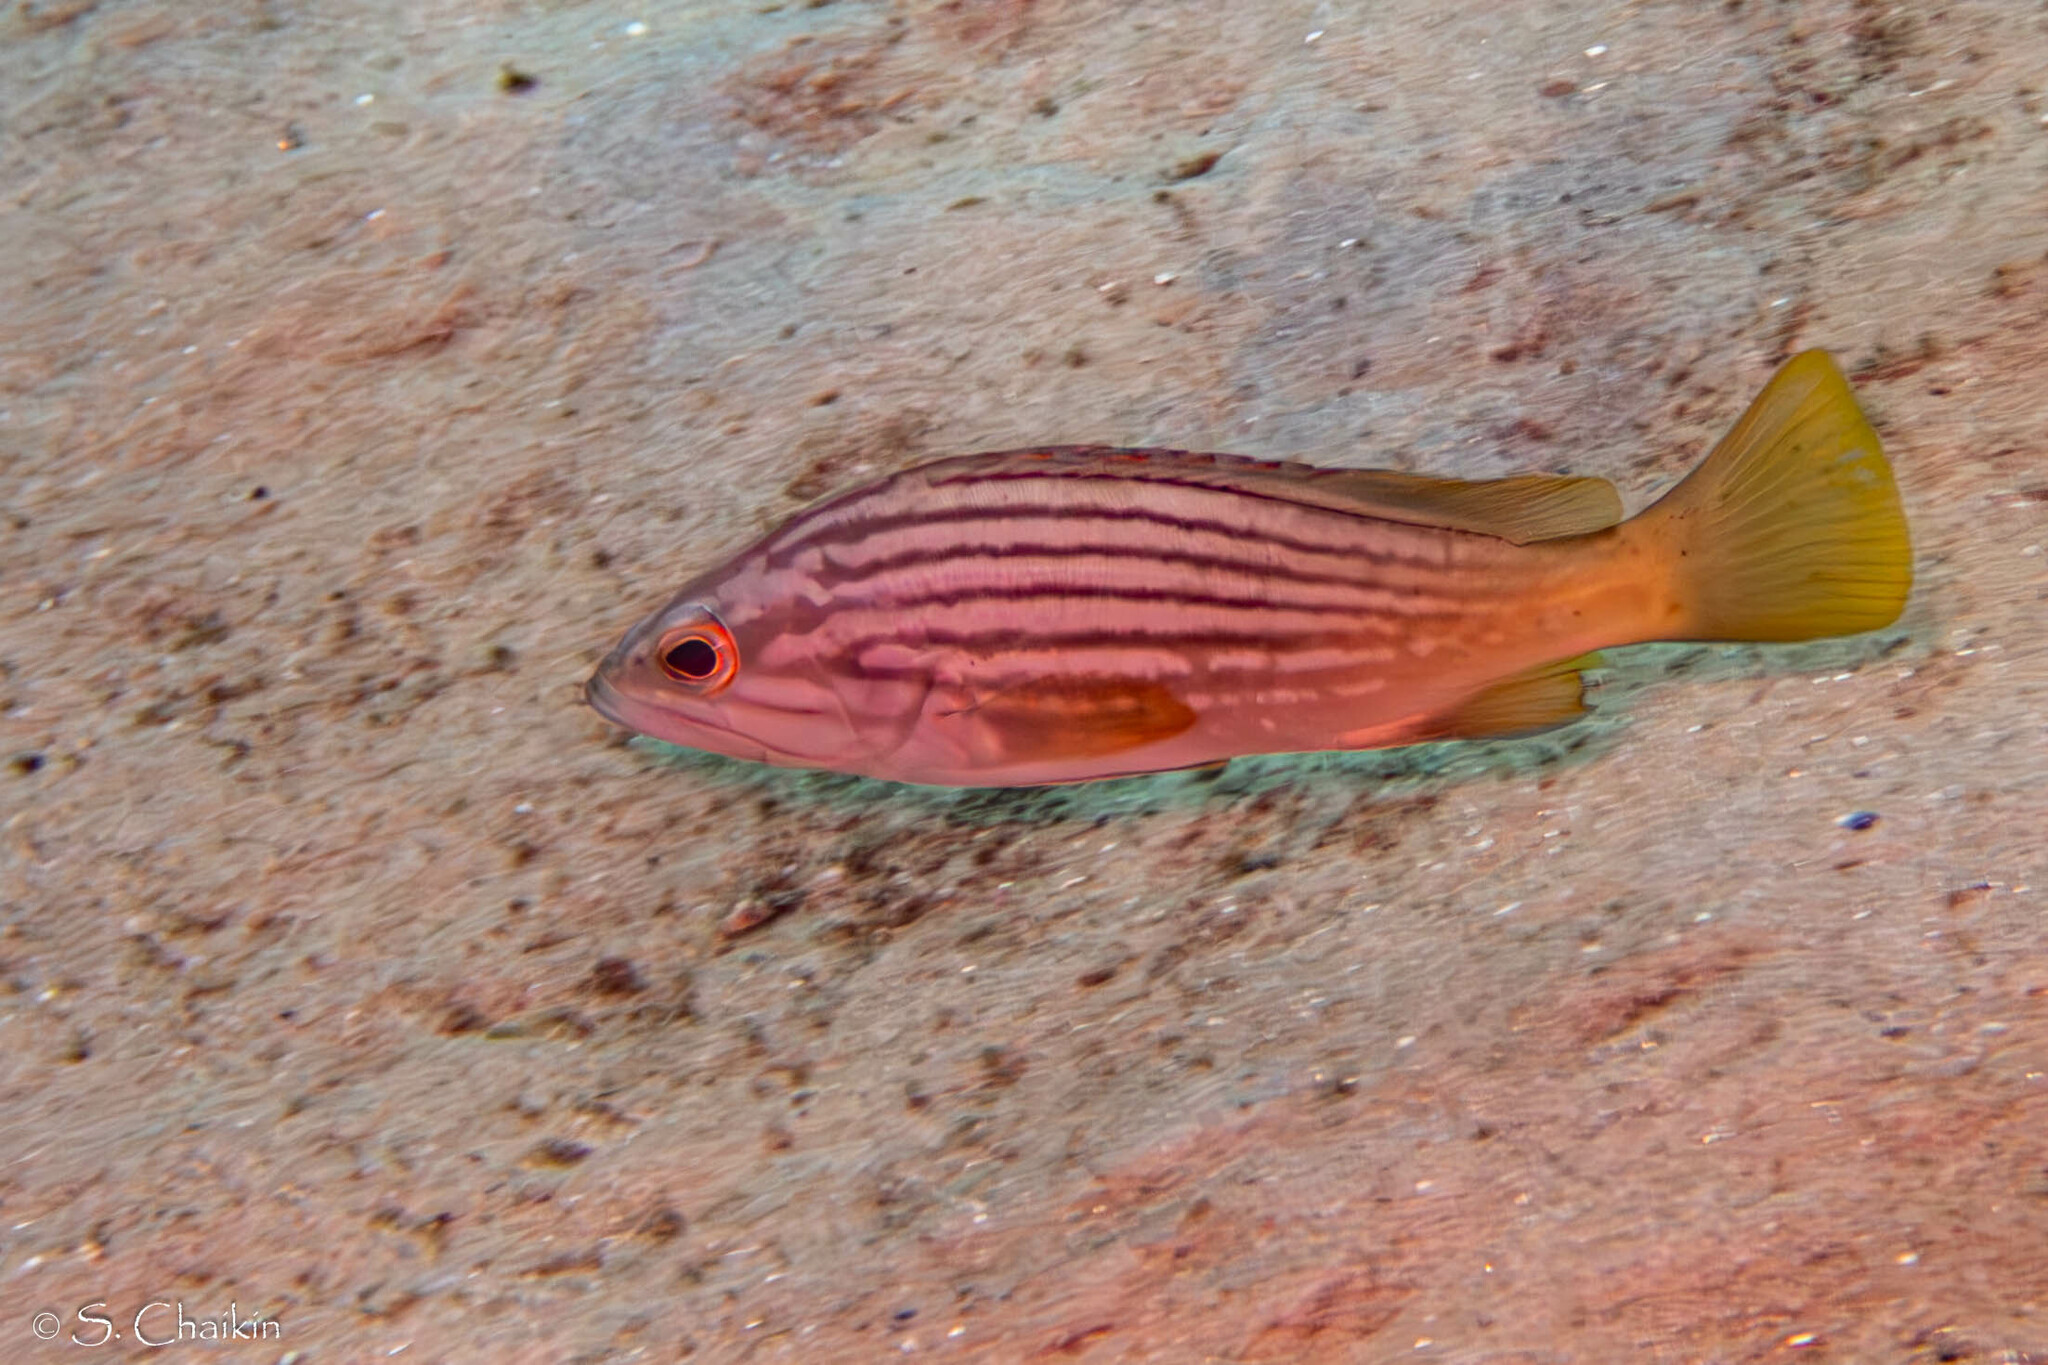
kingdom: Animalia
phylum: Chordata
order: Perciformes
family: Serranidae
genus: Epinephelus
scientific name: Epinephelus costae
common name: Goldblotch grouper
